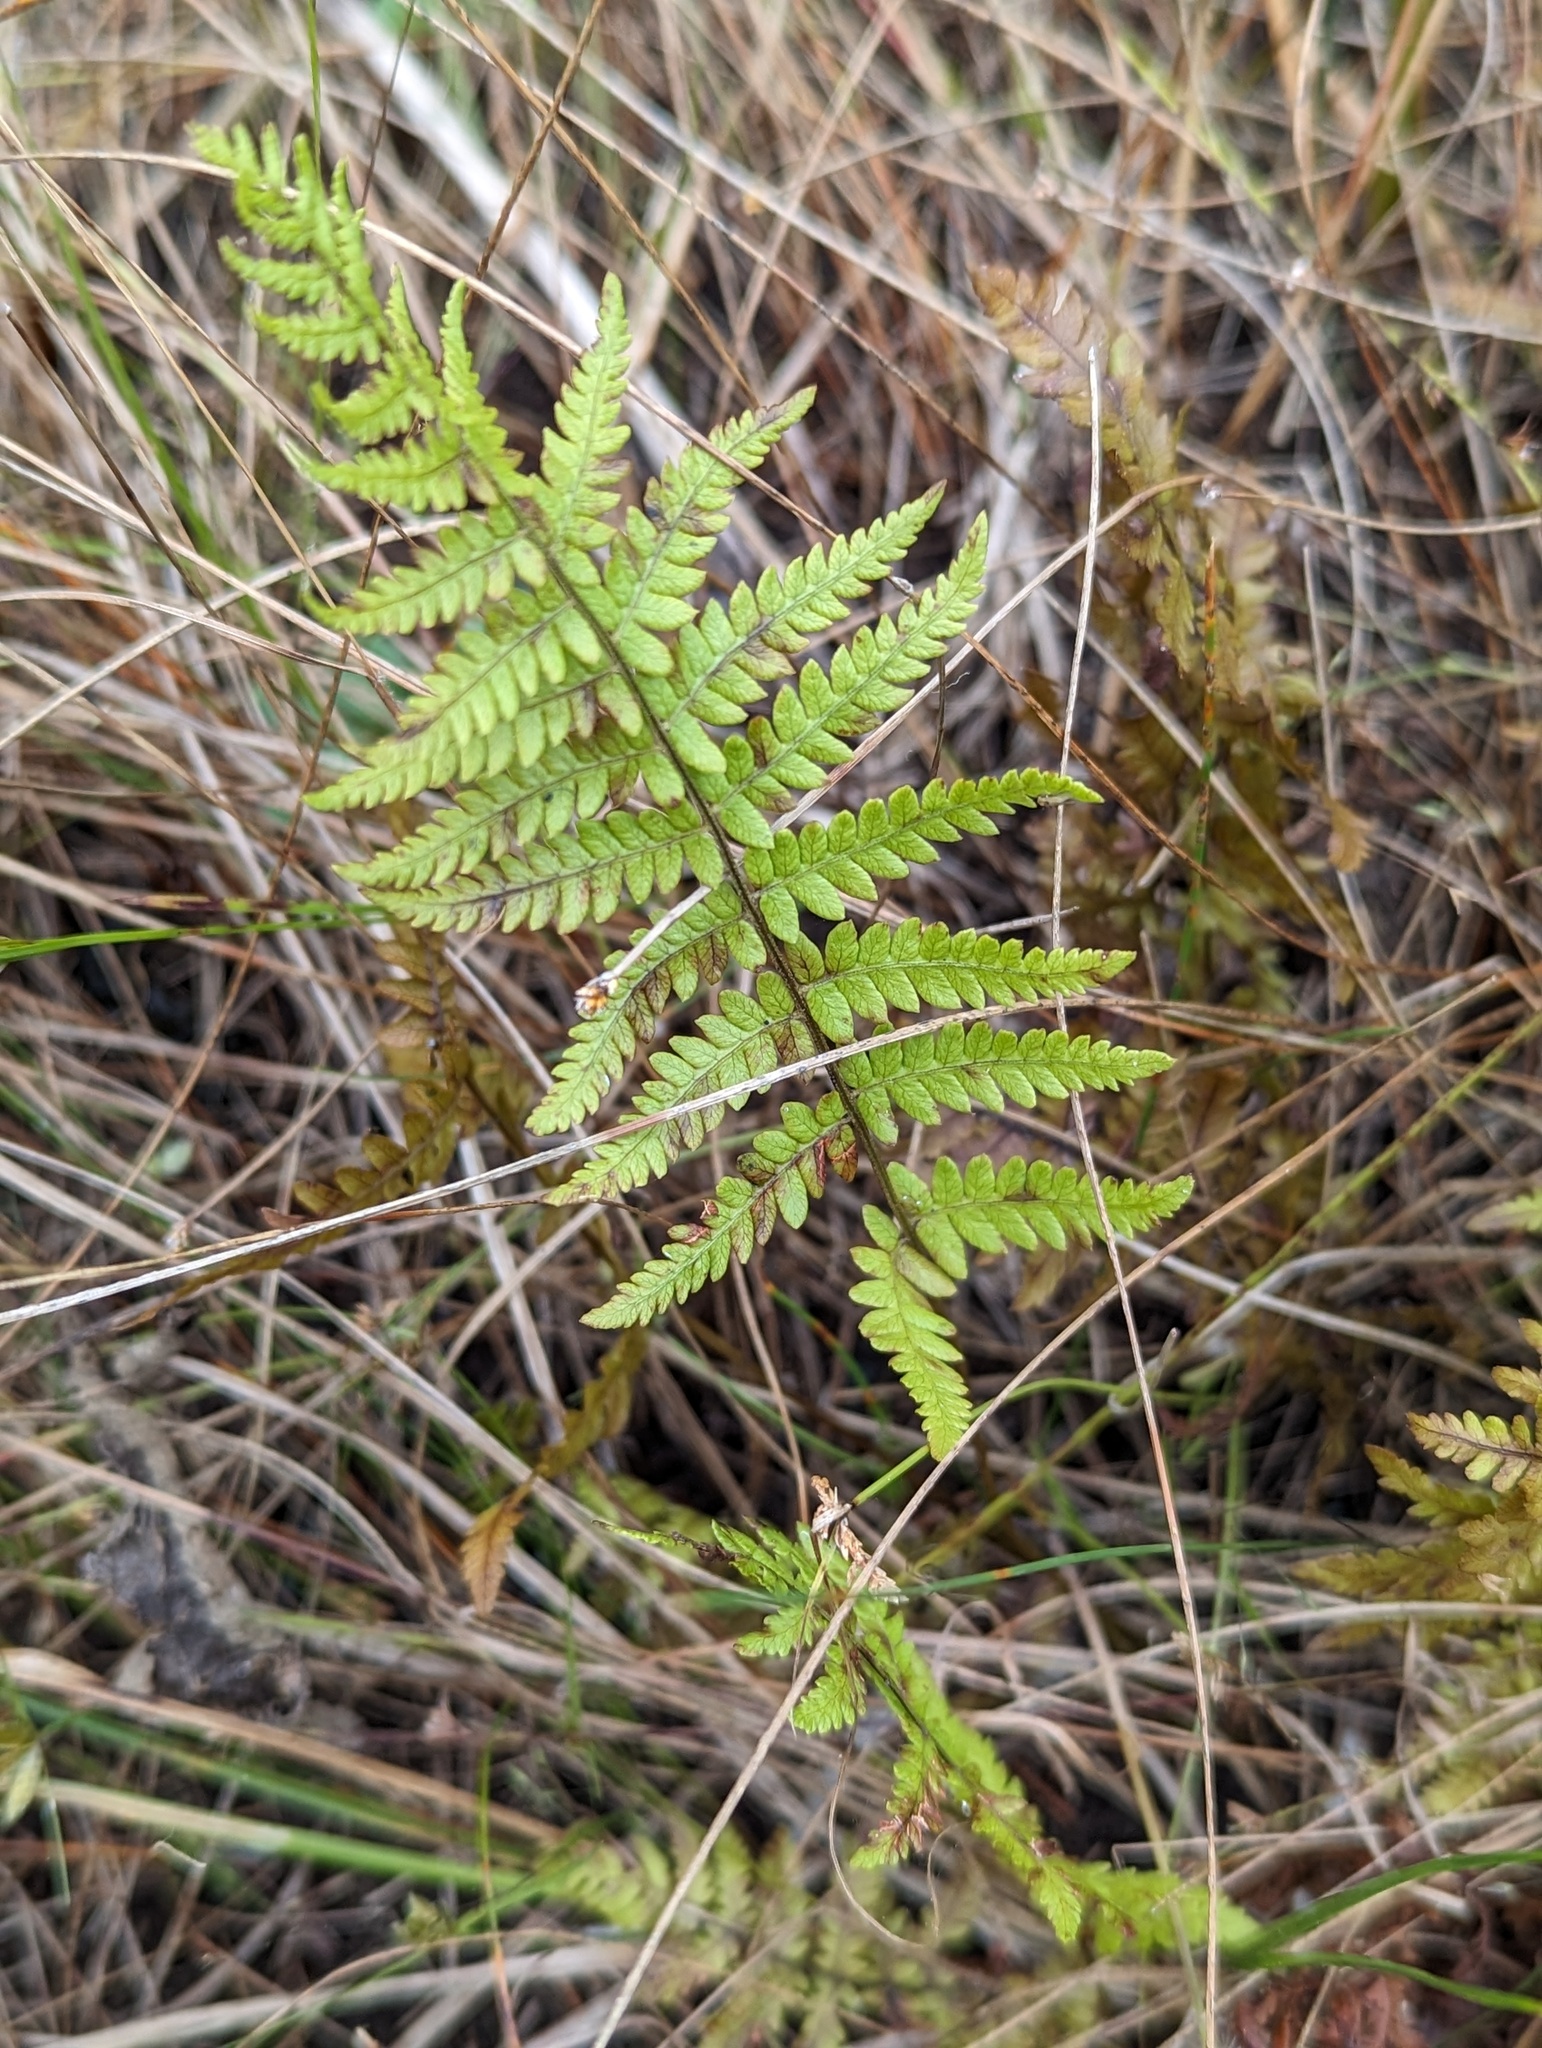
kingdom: Plantae
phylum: Tracheophyta
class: Polypodiopsida
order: Polypodiales
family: Thelypteridaceae
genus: Thelypteris
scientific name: Thelypteris palustris
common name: Marsh fern
